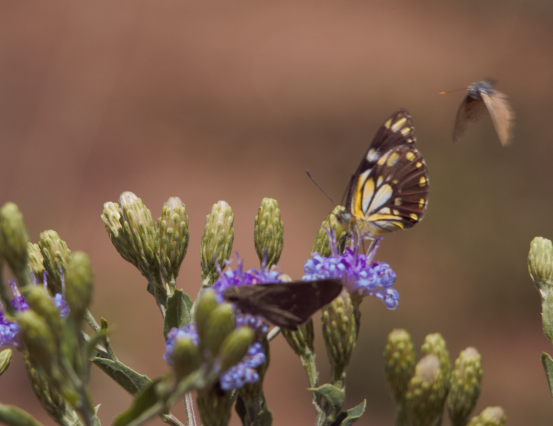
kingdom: Animalia
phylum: Arthropoda
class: Insecta
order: Lepidoptera
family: Pieridae
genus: Belenois
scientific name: Belenois creona
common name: African caper white
